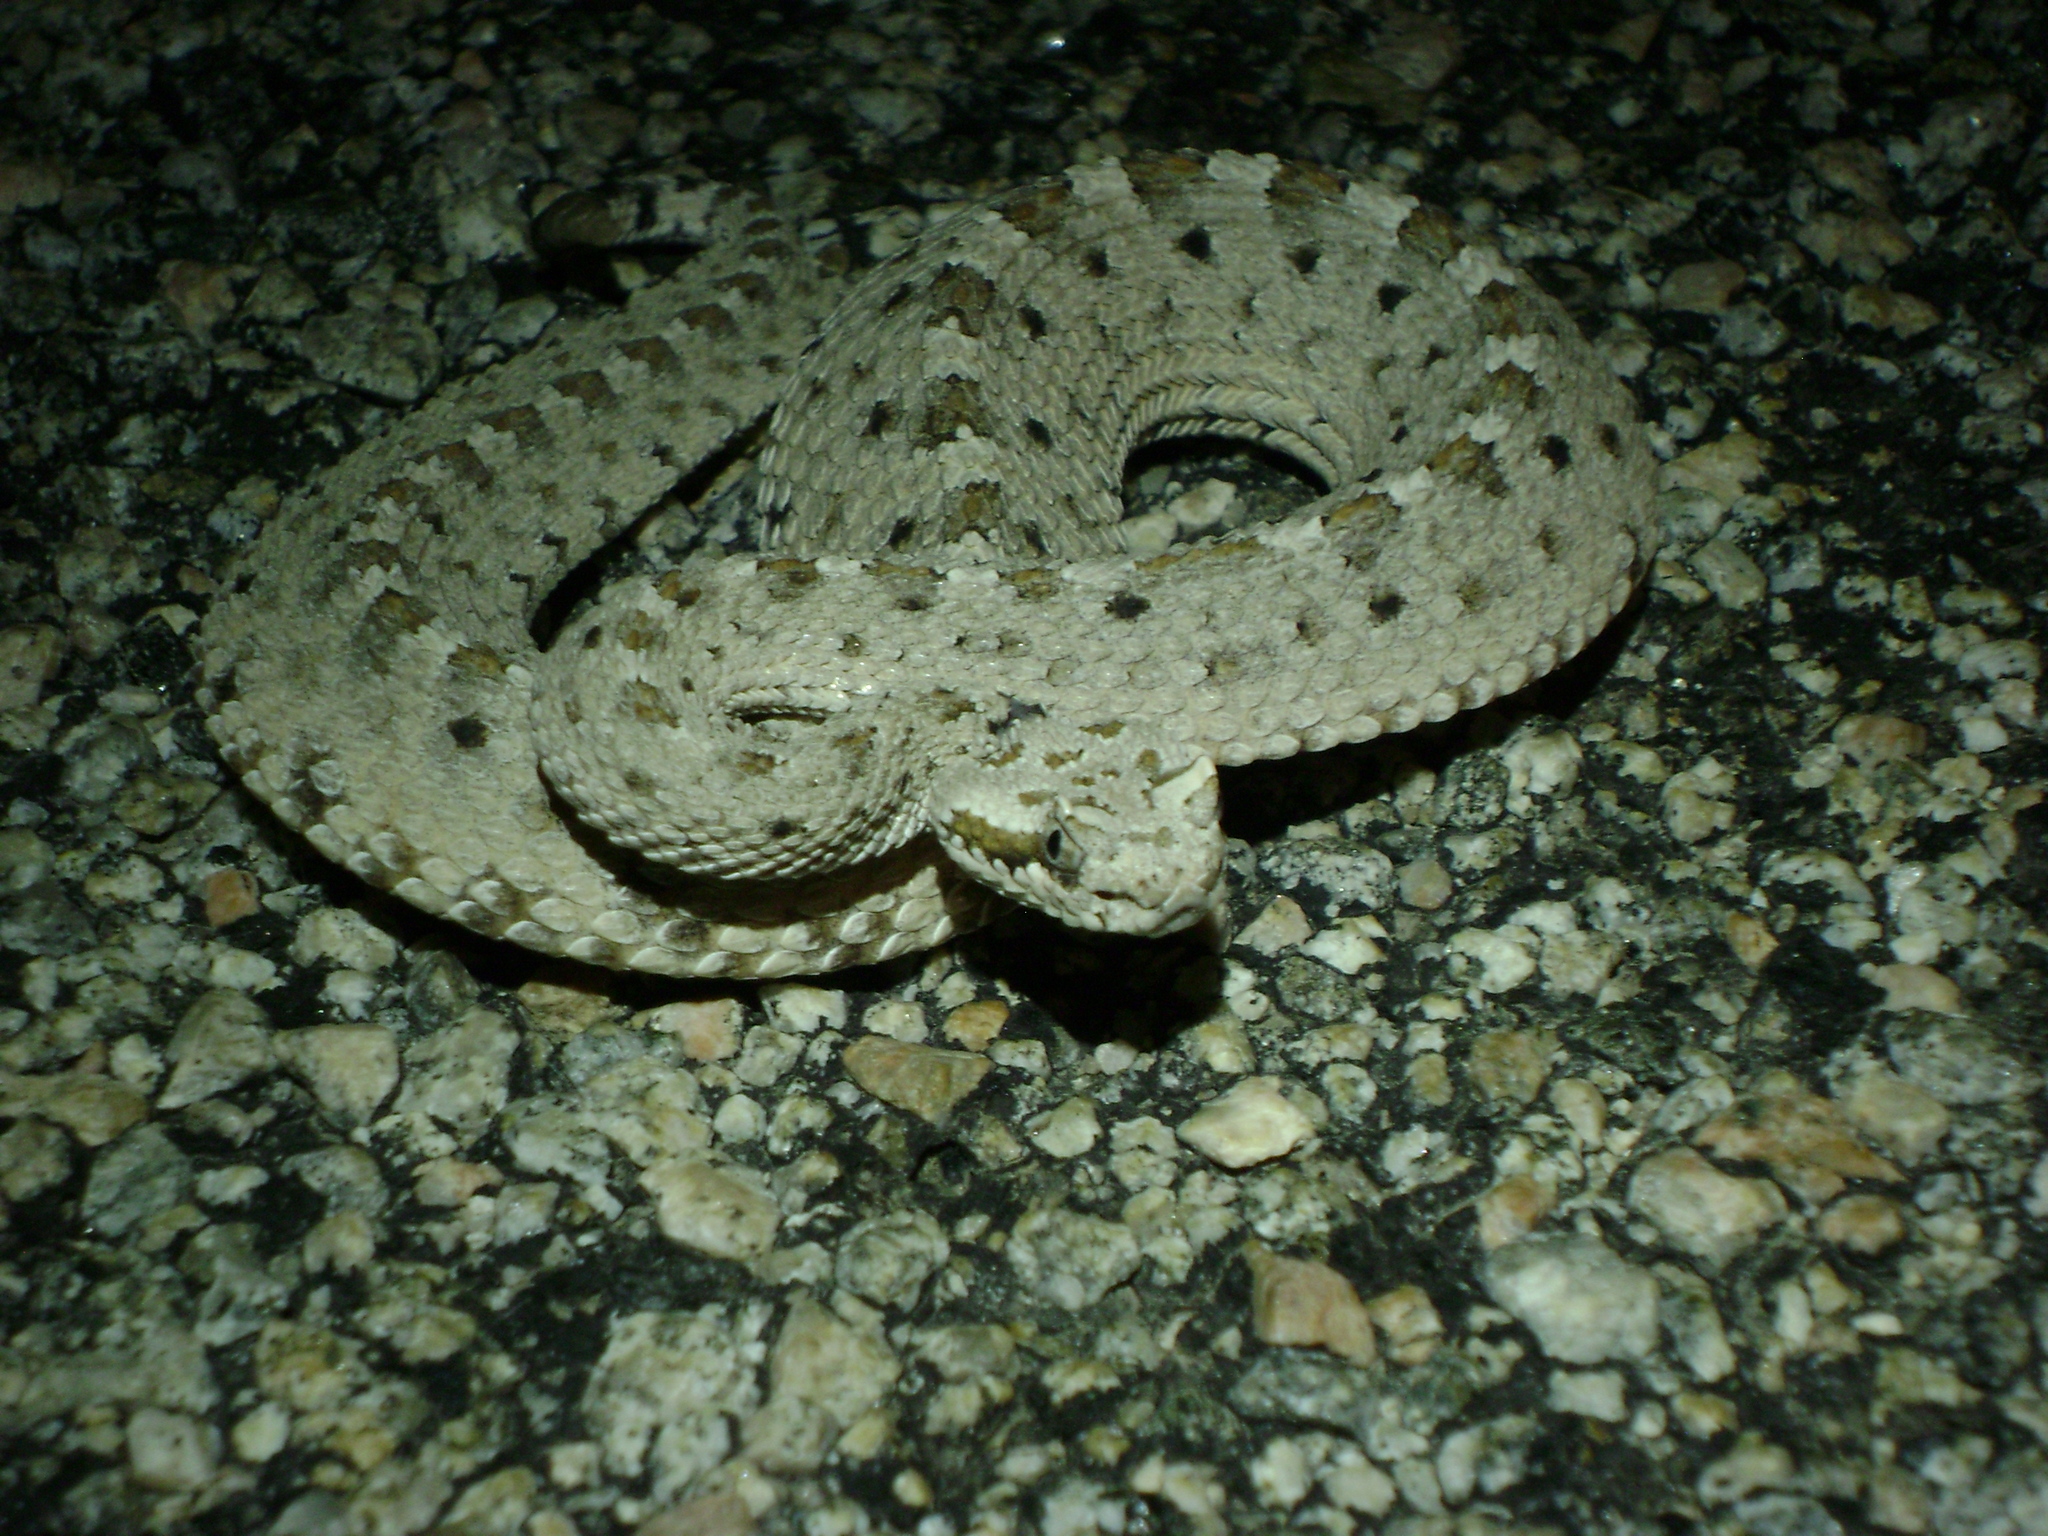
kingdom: Animalia
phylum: Chordata
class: Squamata
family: Viperidae
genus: Crotalus
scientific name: Crotalus cerastes
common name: Sidewinder
